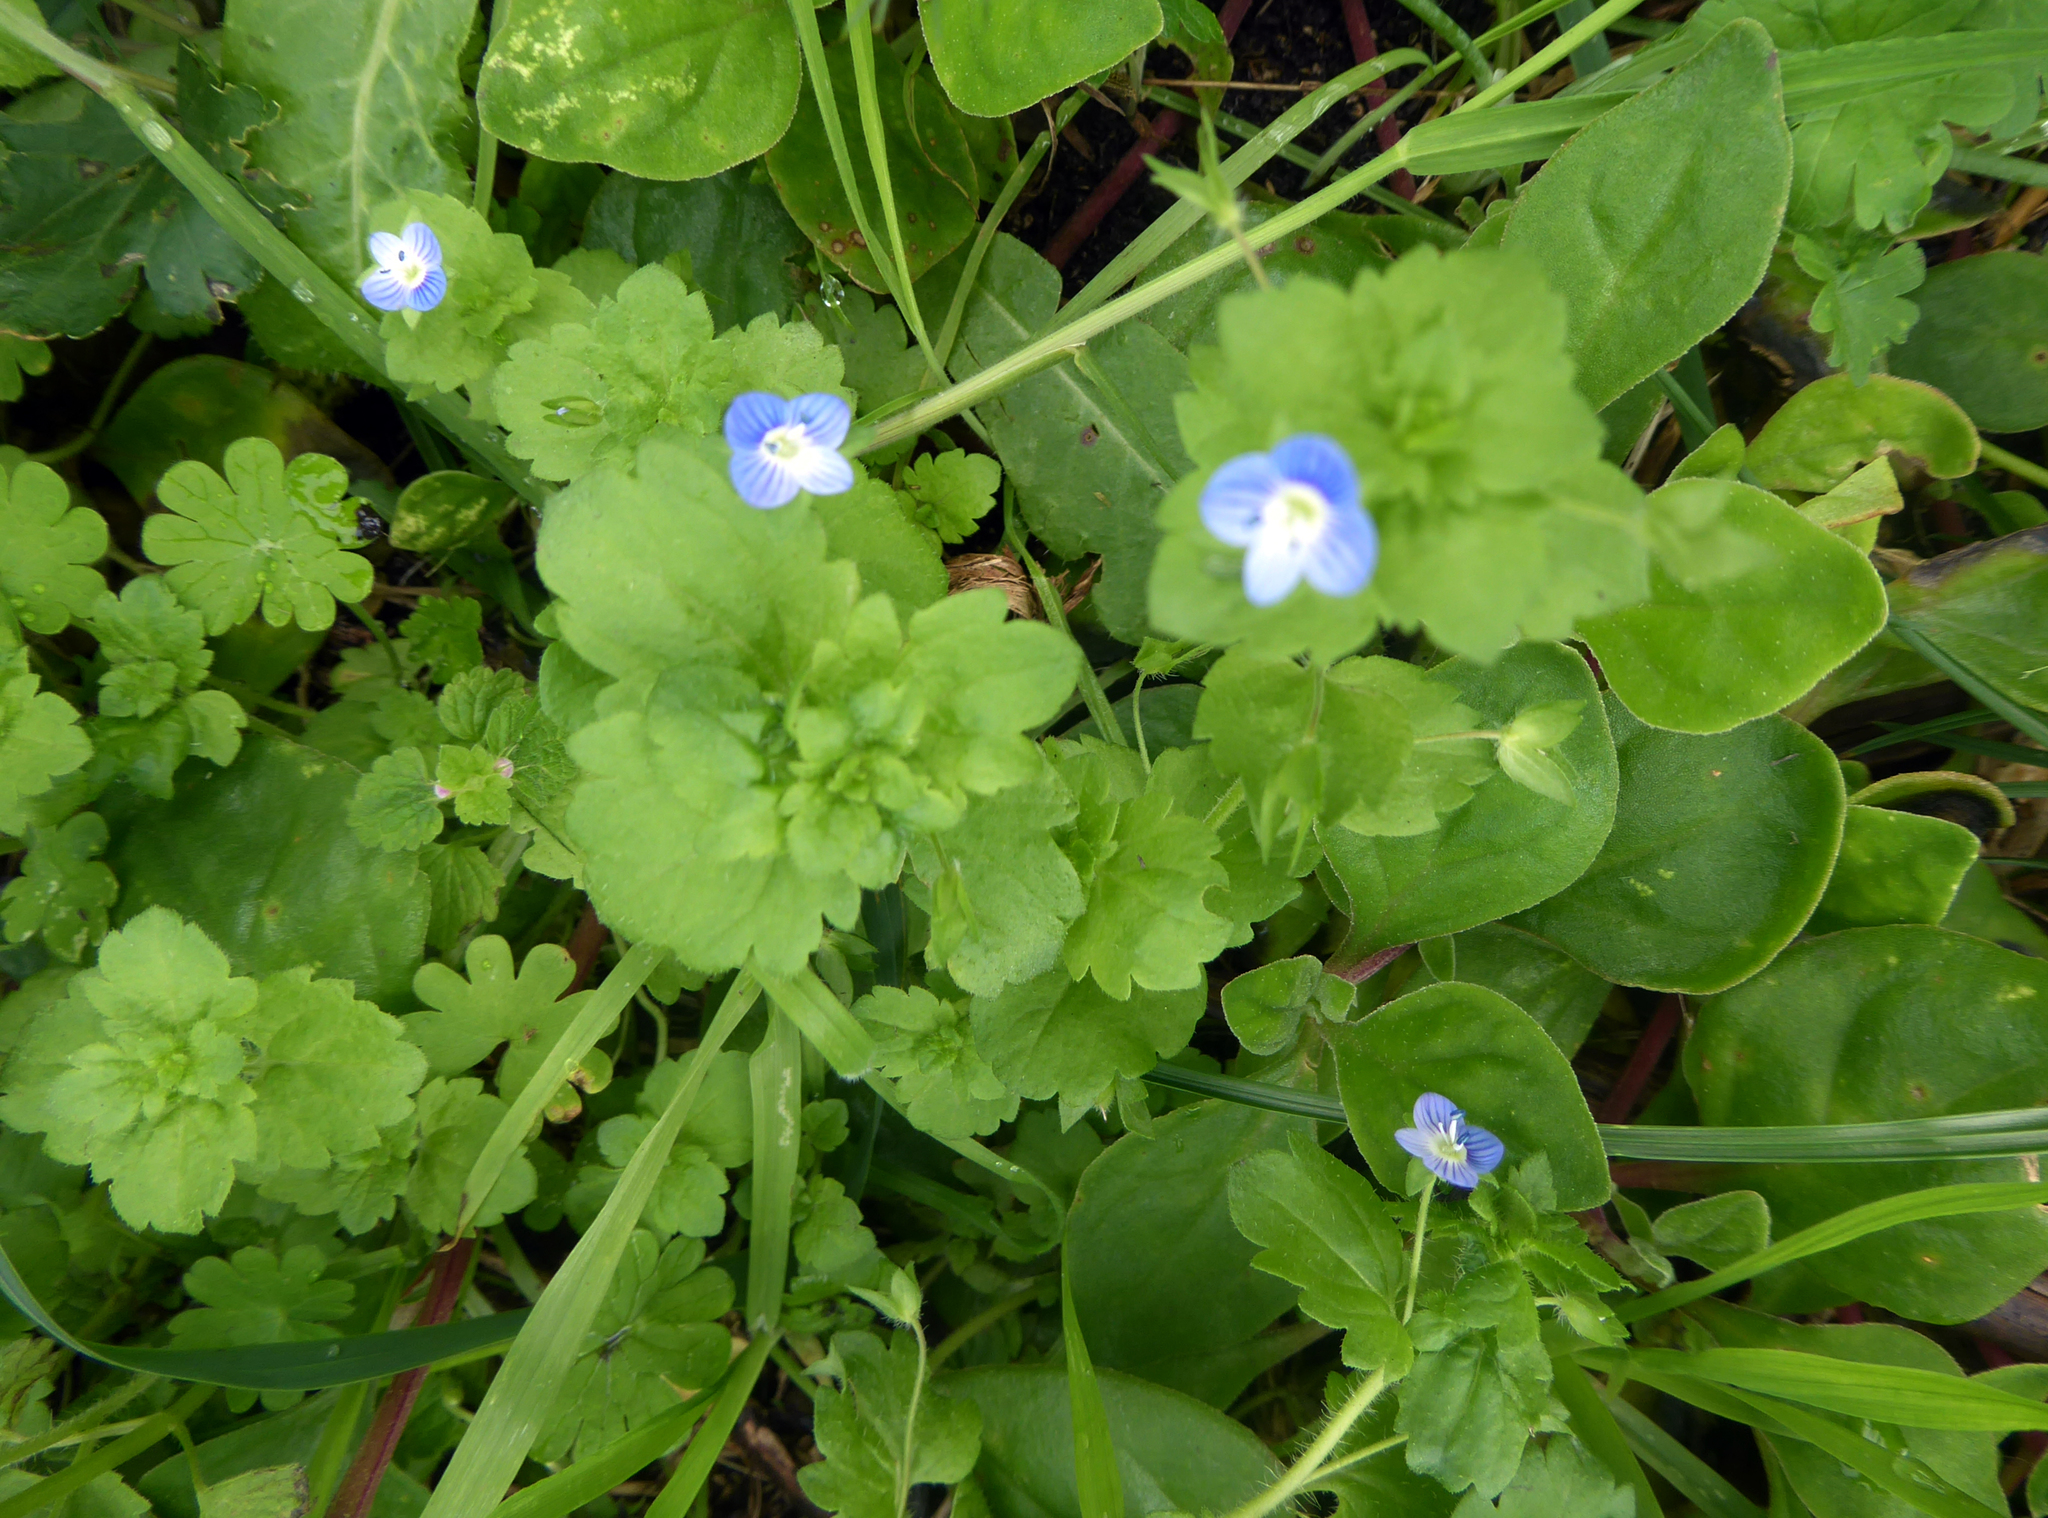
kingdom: Plantae
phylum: Tracheophyta
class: Magnoliopsida
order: Lamiales
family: Plantaginaceae
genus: Veronica
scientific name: Veronica persica
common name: Common field-speedwell
